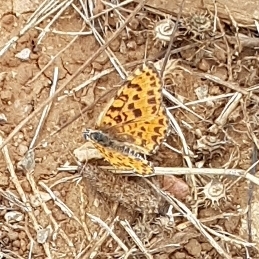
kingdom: Animalia
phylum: Arthropoda
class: Insecta
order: Lepidoptera
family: Nymphalidae
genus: Melitaea
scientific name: Melitaea didyma
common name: Spotted fritillary
